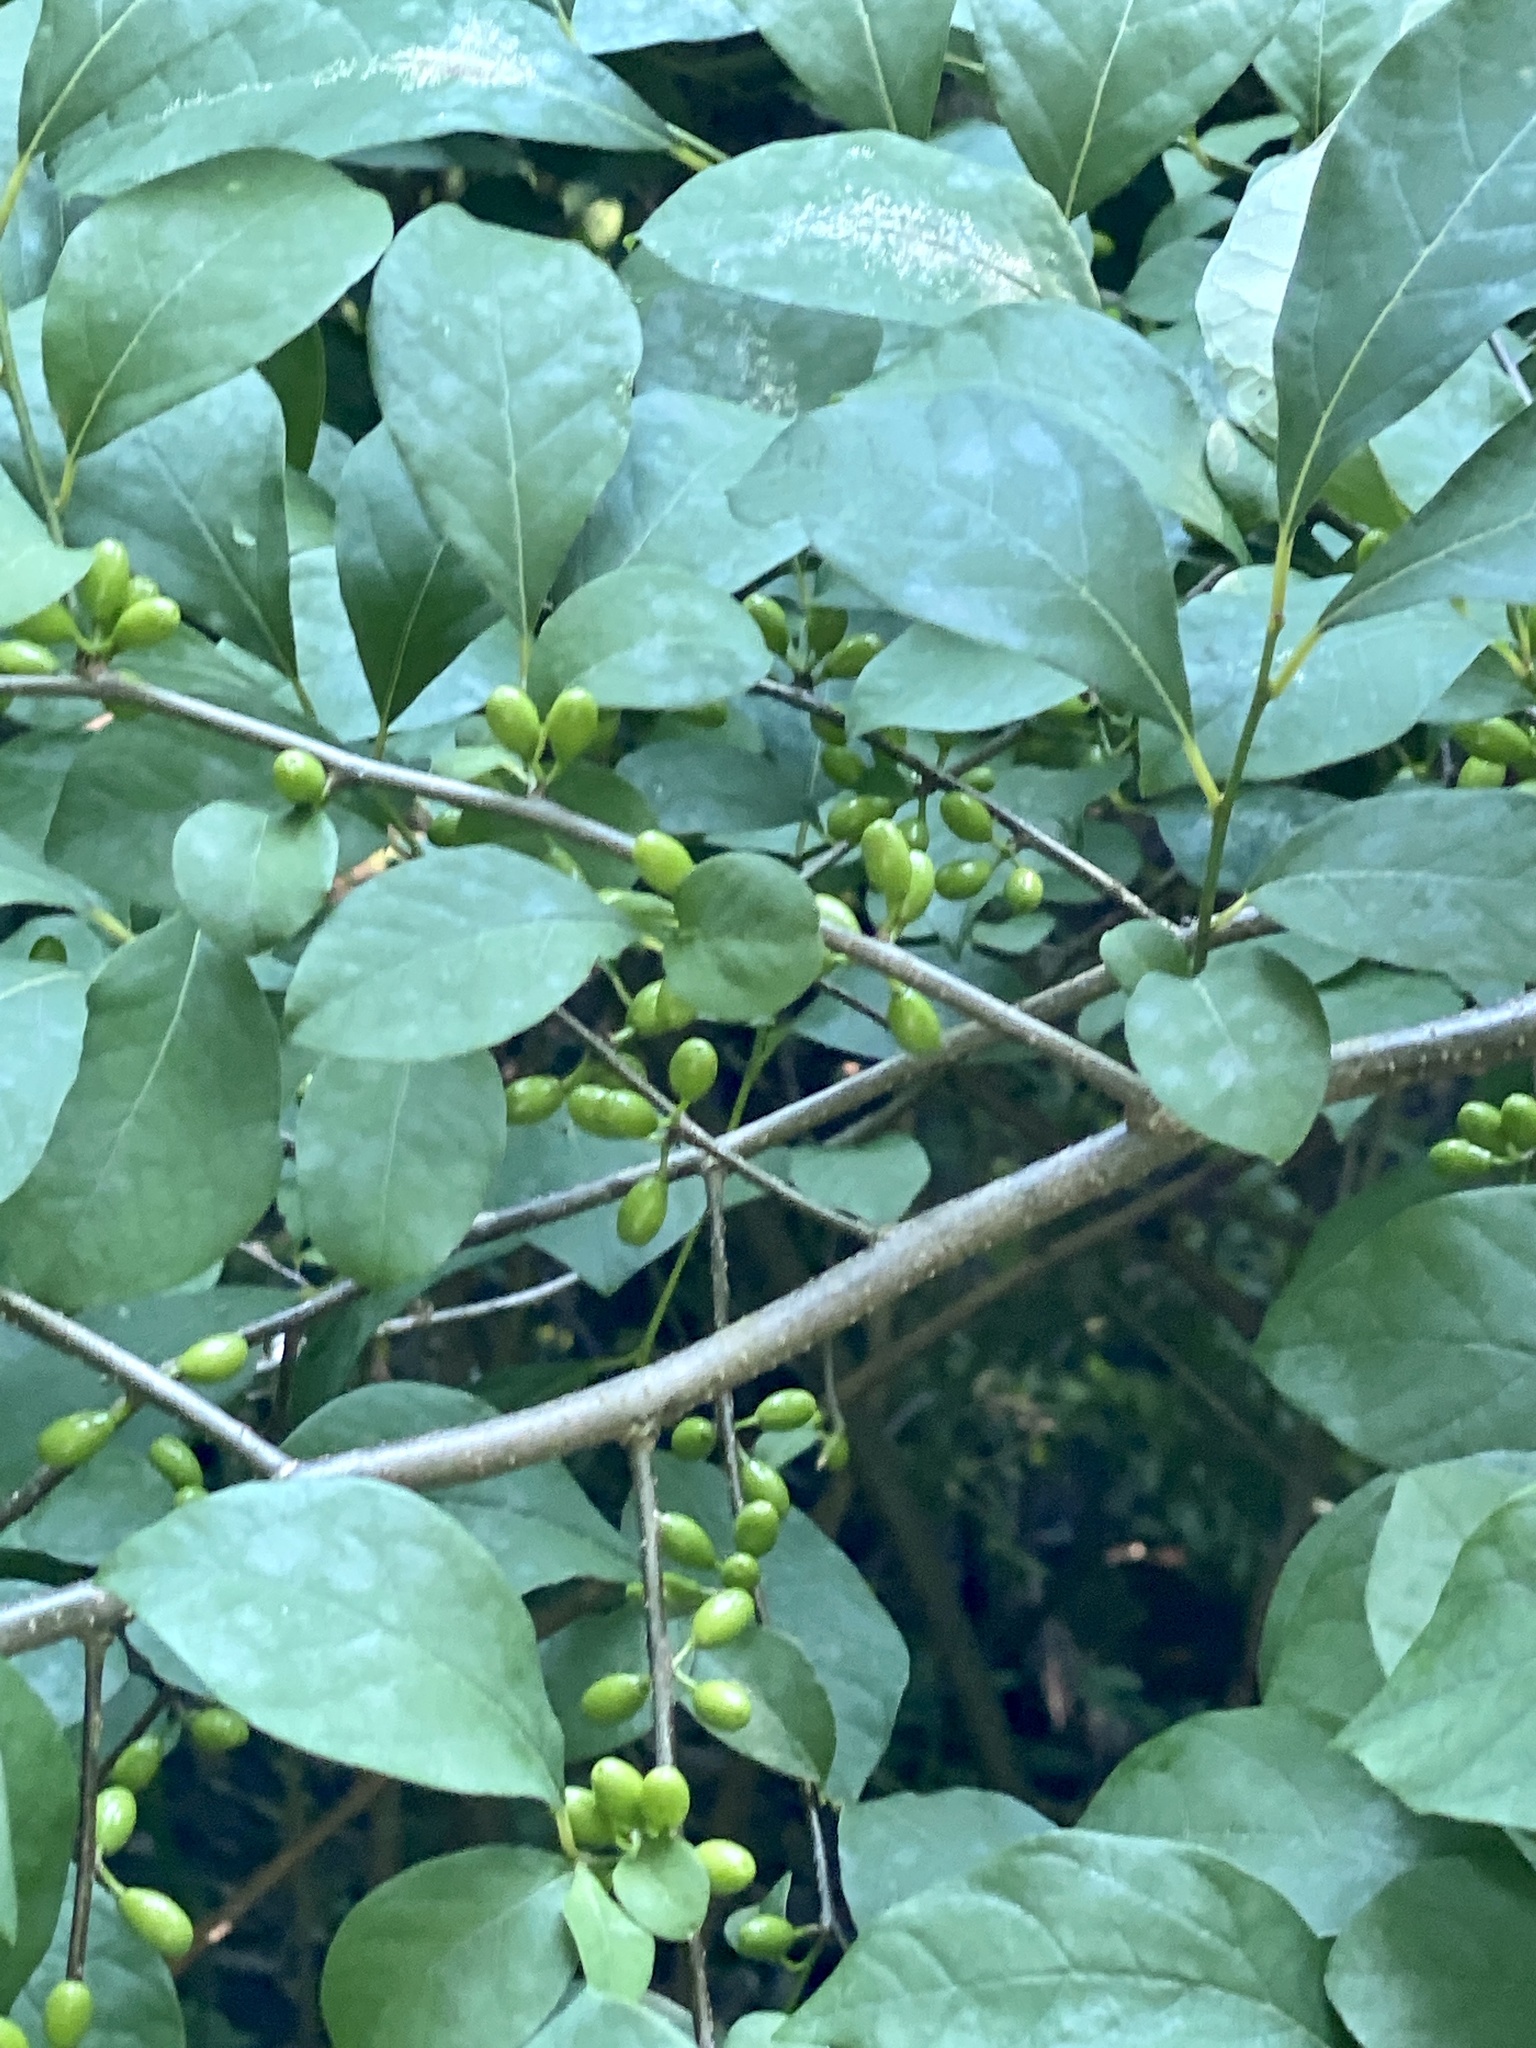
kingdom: Plantae
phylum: Tracheophyta
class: Magnoliopsida
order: Laurales
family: Lauraceae
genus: Lindera
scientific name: Lindera benzoin
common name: Spicebush
